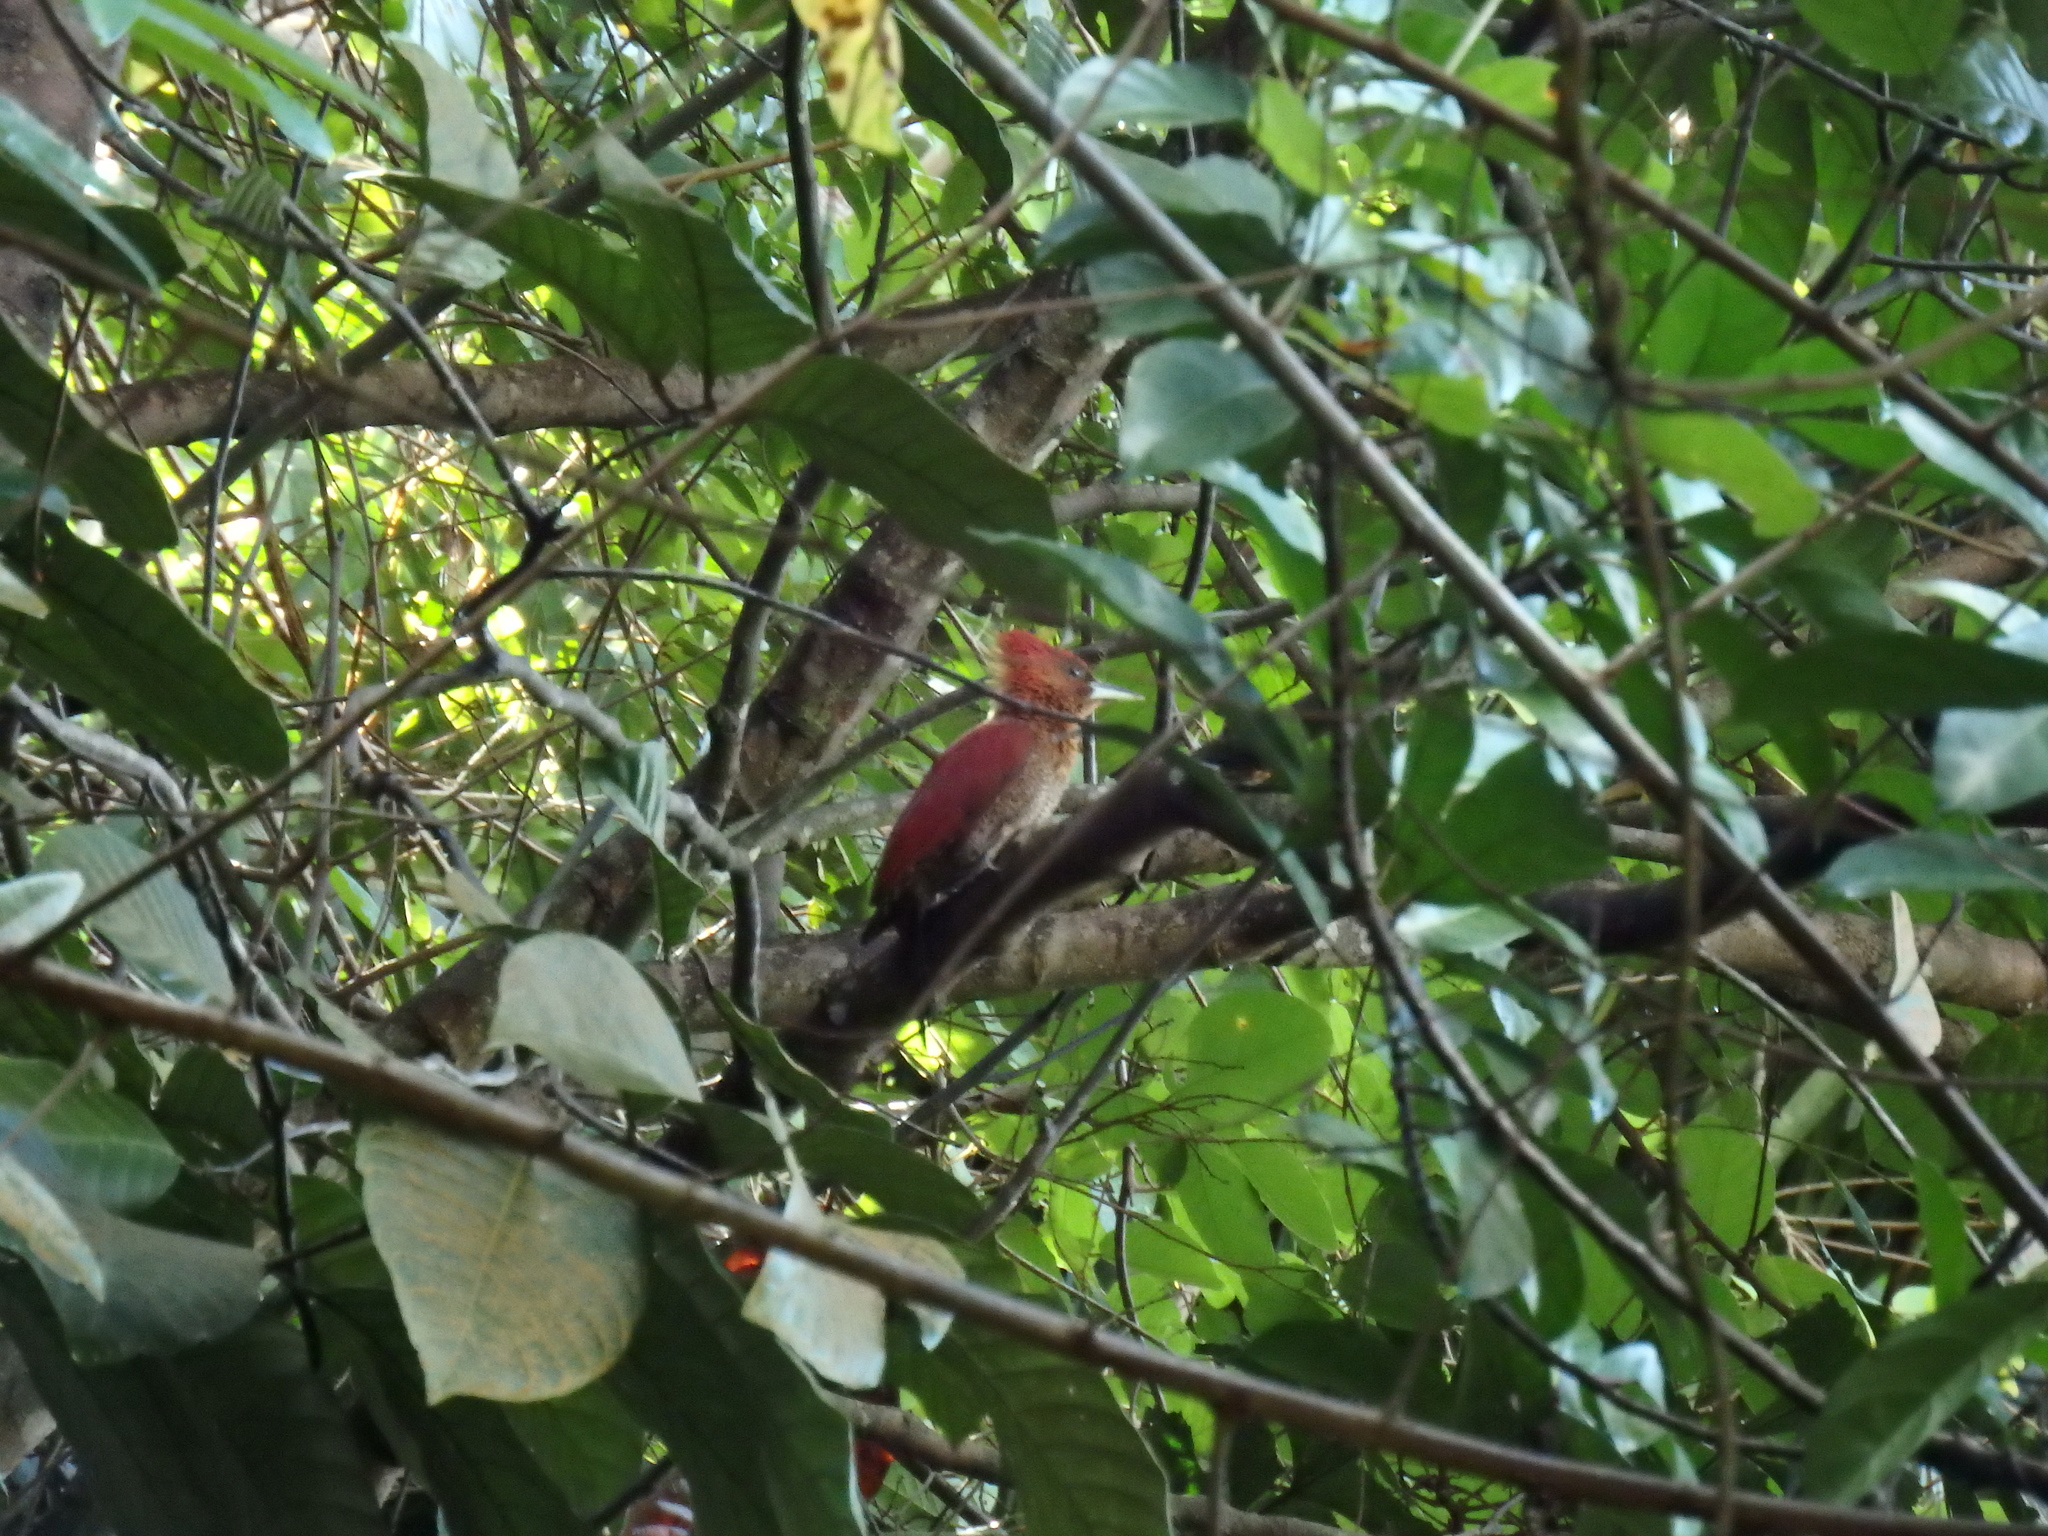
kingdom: Animalia
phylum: Chordata
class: Aves
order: Piciformes
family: Picidae
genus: Chrysophlegma
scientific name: Chrysophlegma miniaceum
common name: Banded woodpecker
